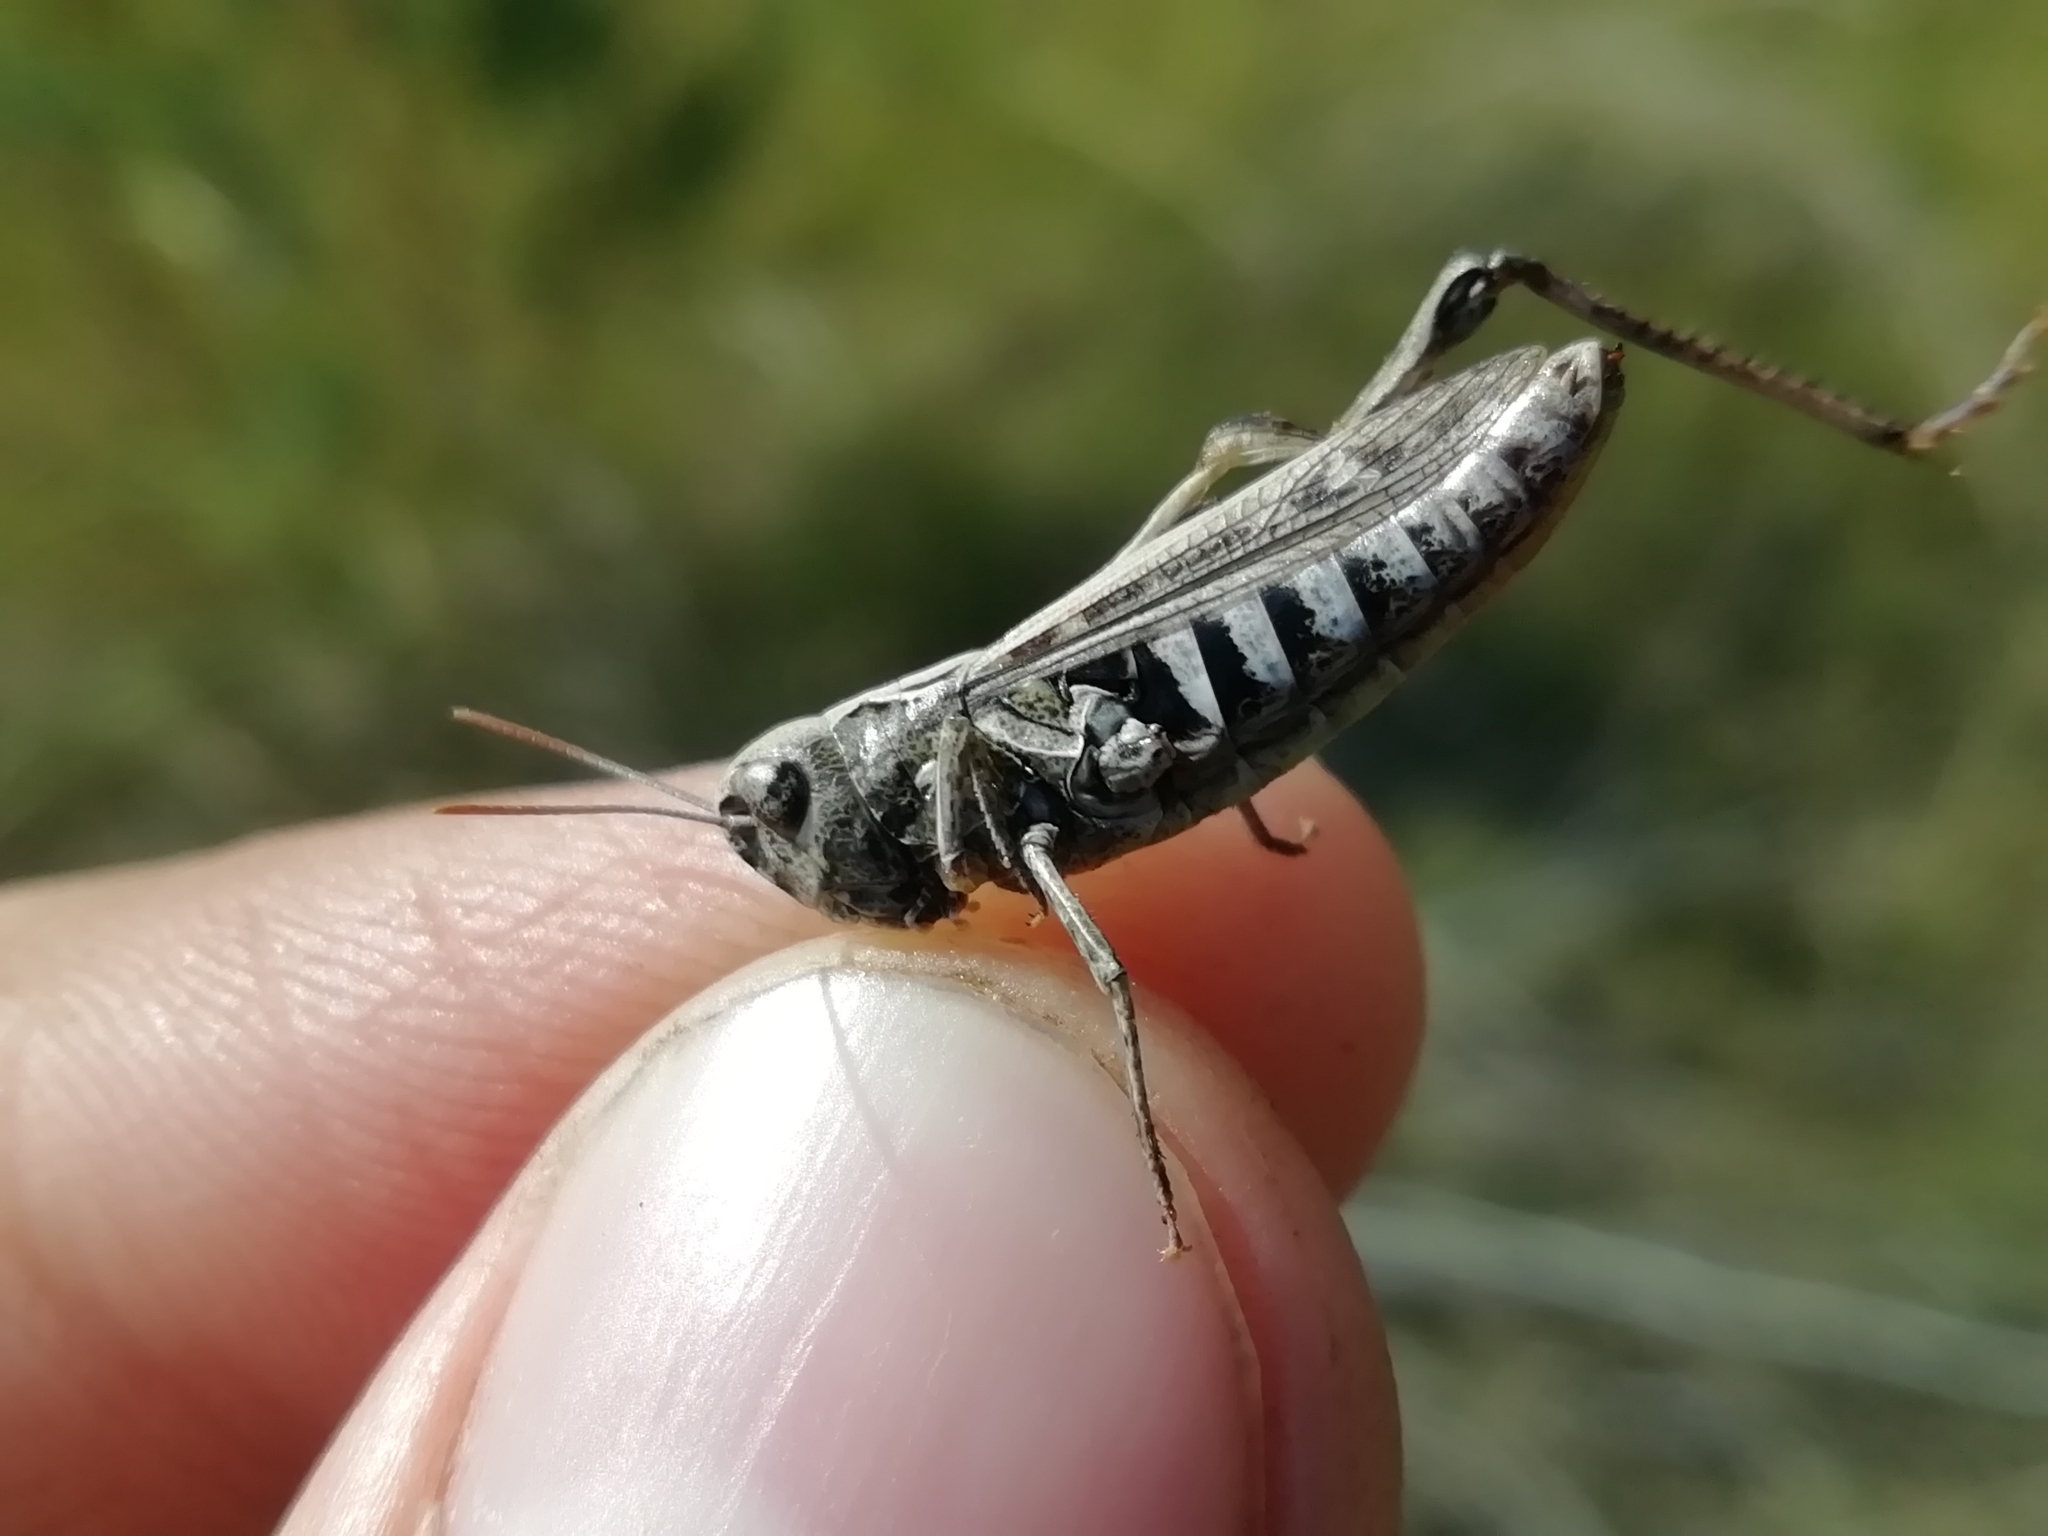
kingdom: Animalia
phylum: Arthropoda
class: Insecta
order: Orthoptera
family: Acrididae
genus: Omocestus
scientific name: Omocestus haemorrhoidalis
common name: Orange-tipped grasshopper
